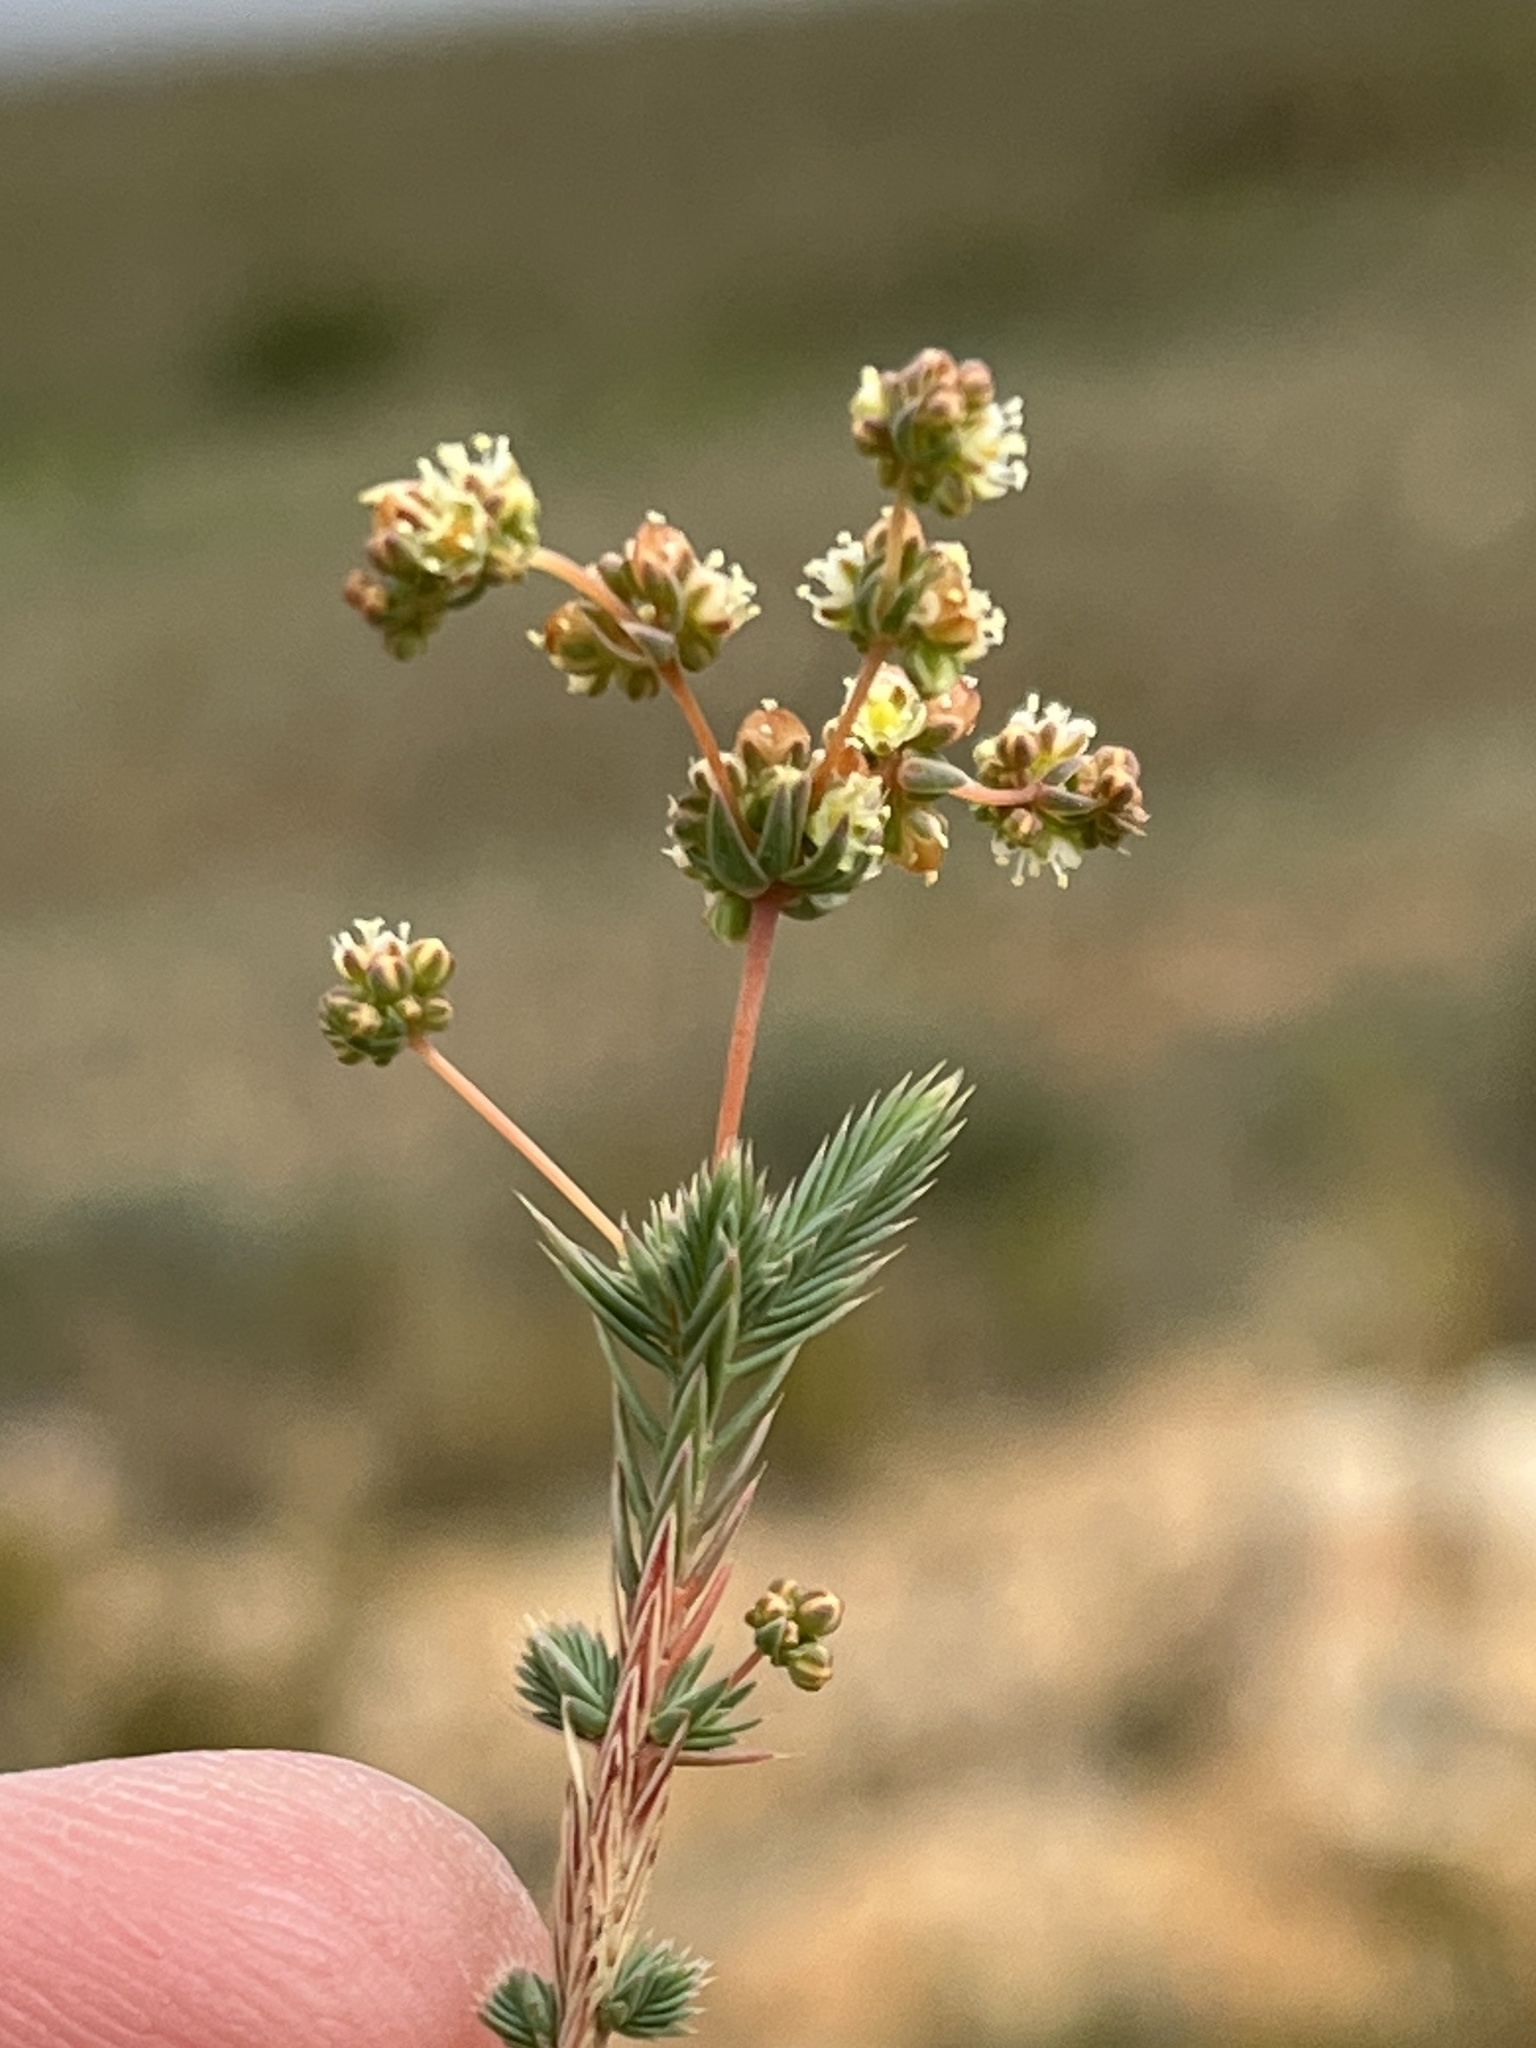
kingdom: Plantae
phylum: Tracheophyta
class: Magnoliopsida
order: Caryophyllales
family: Molluginaceae
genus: Psammotropha
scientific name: Psammotropha quadrangularis
